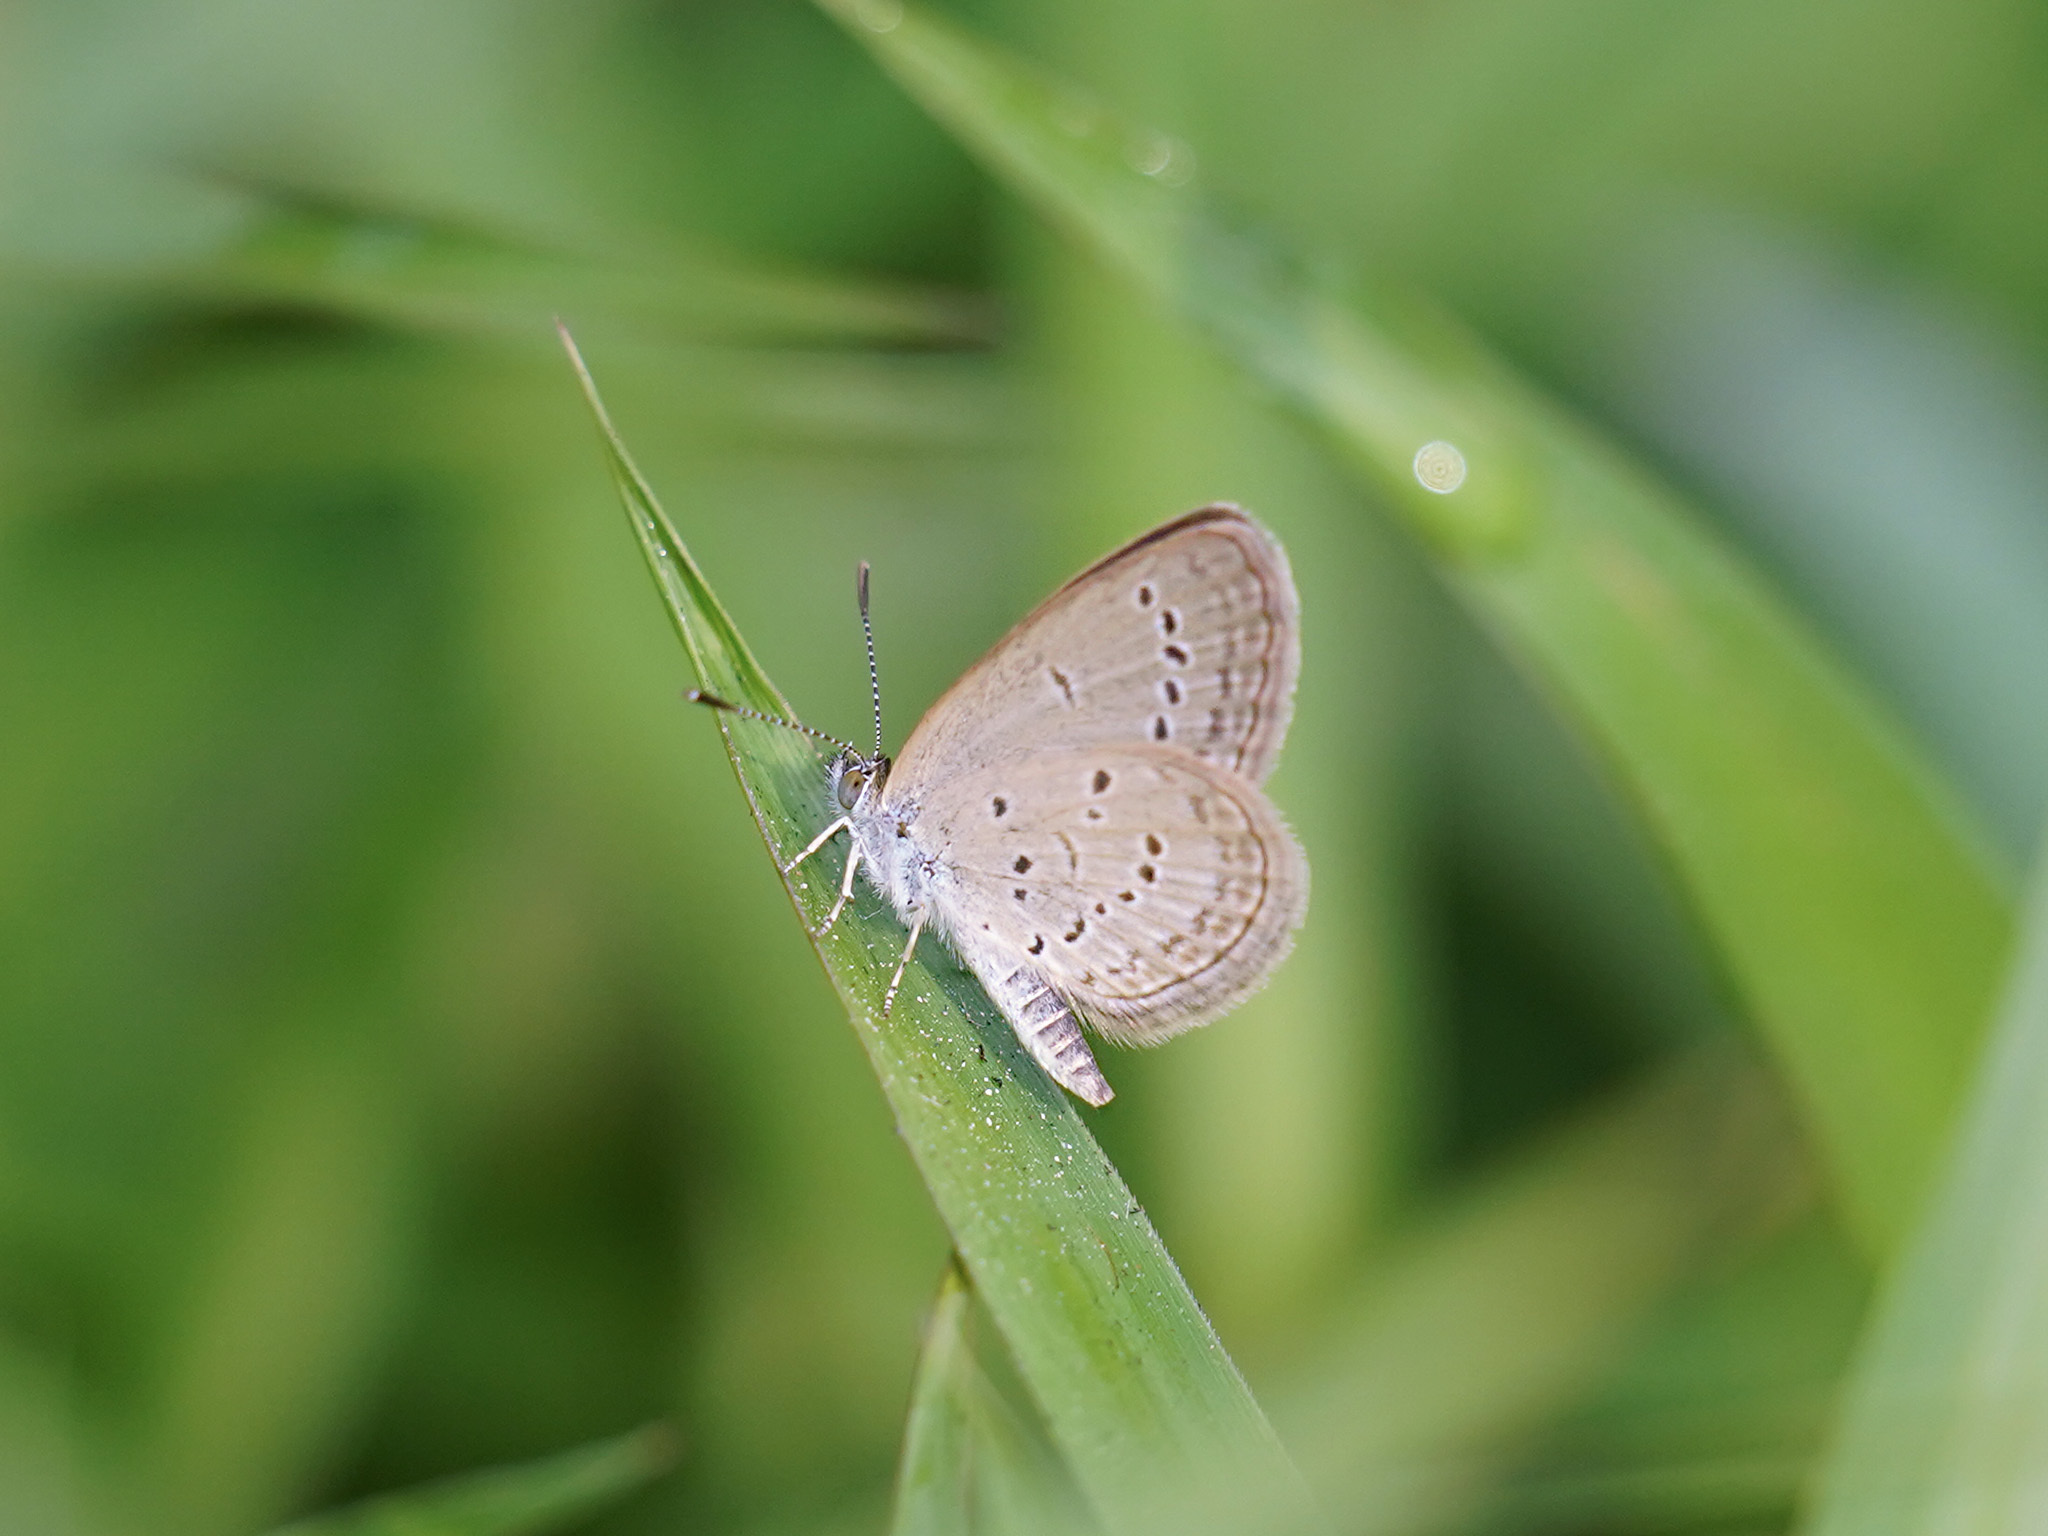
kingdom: Animalia
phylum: Arthropoda
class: Insecta
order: Lepidoptera
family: Lycaenidae
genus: Zizina
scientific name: Zizina otis
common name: Lesser grass blue
